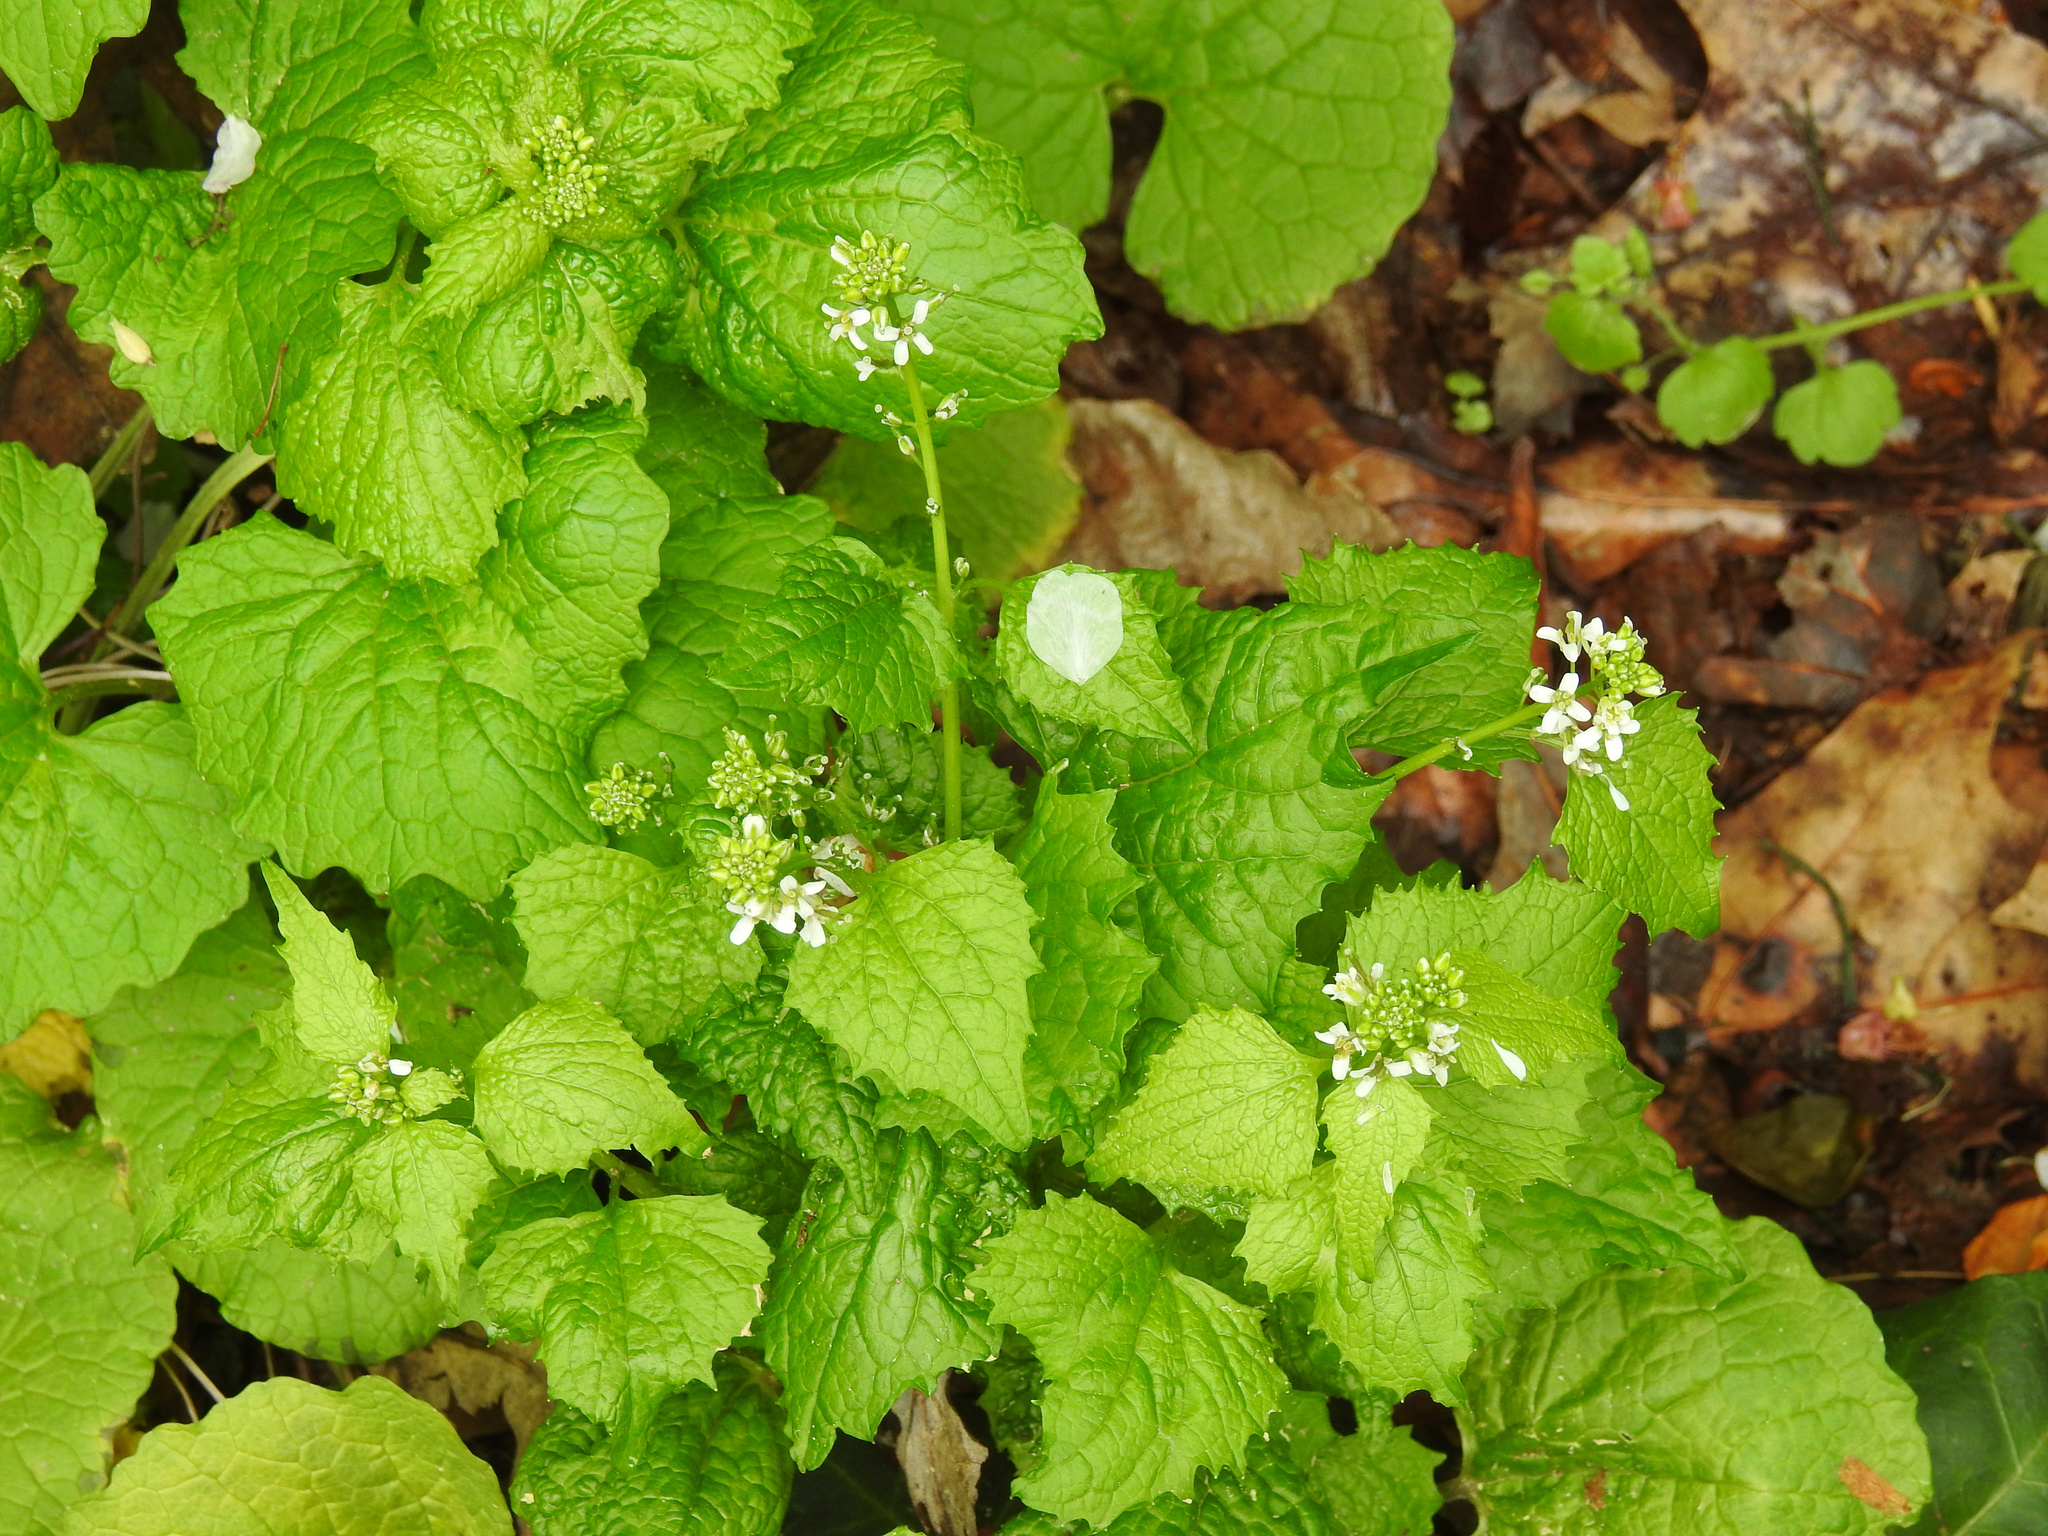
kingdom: Plantae
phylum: Tracheophyta
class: Magnoliopsida
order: Brassicales
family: Brassicaceae
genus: Alliaria
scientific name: Alliaria petiolata
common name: Garlic mustard
